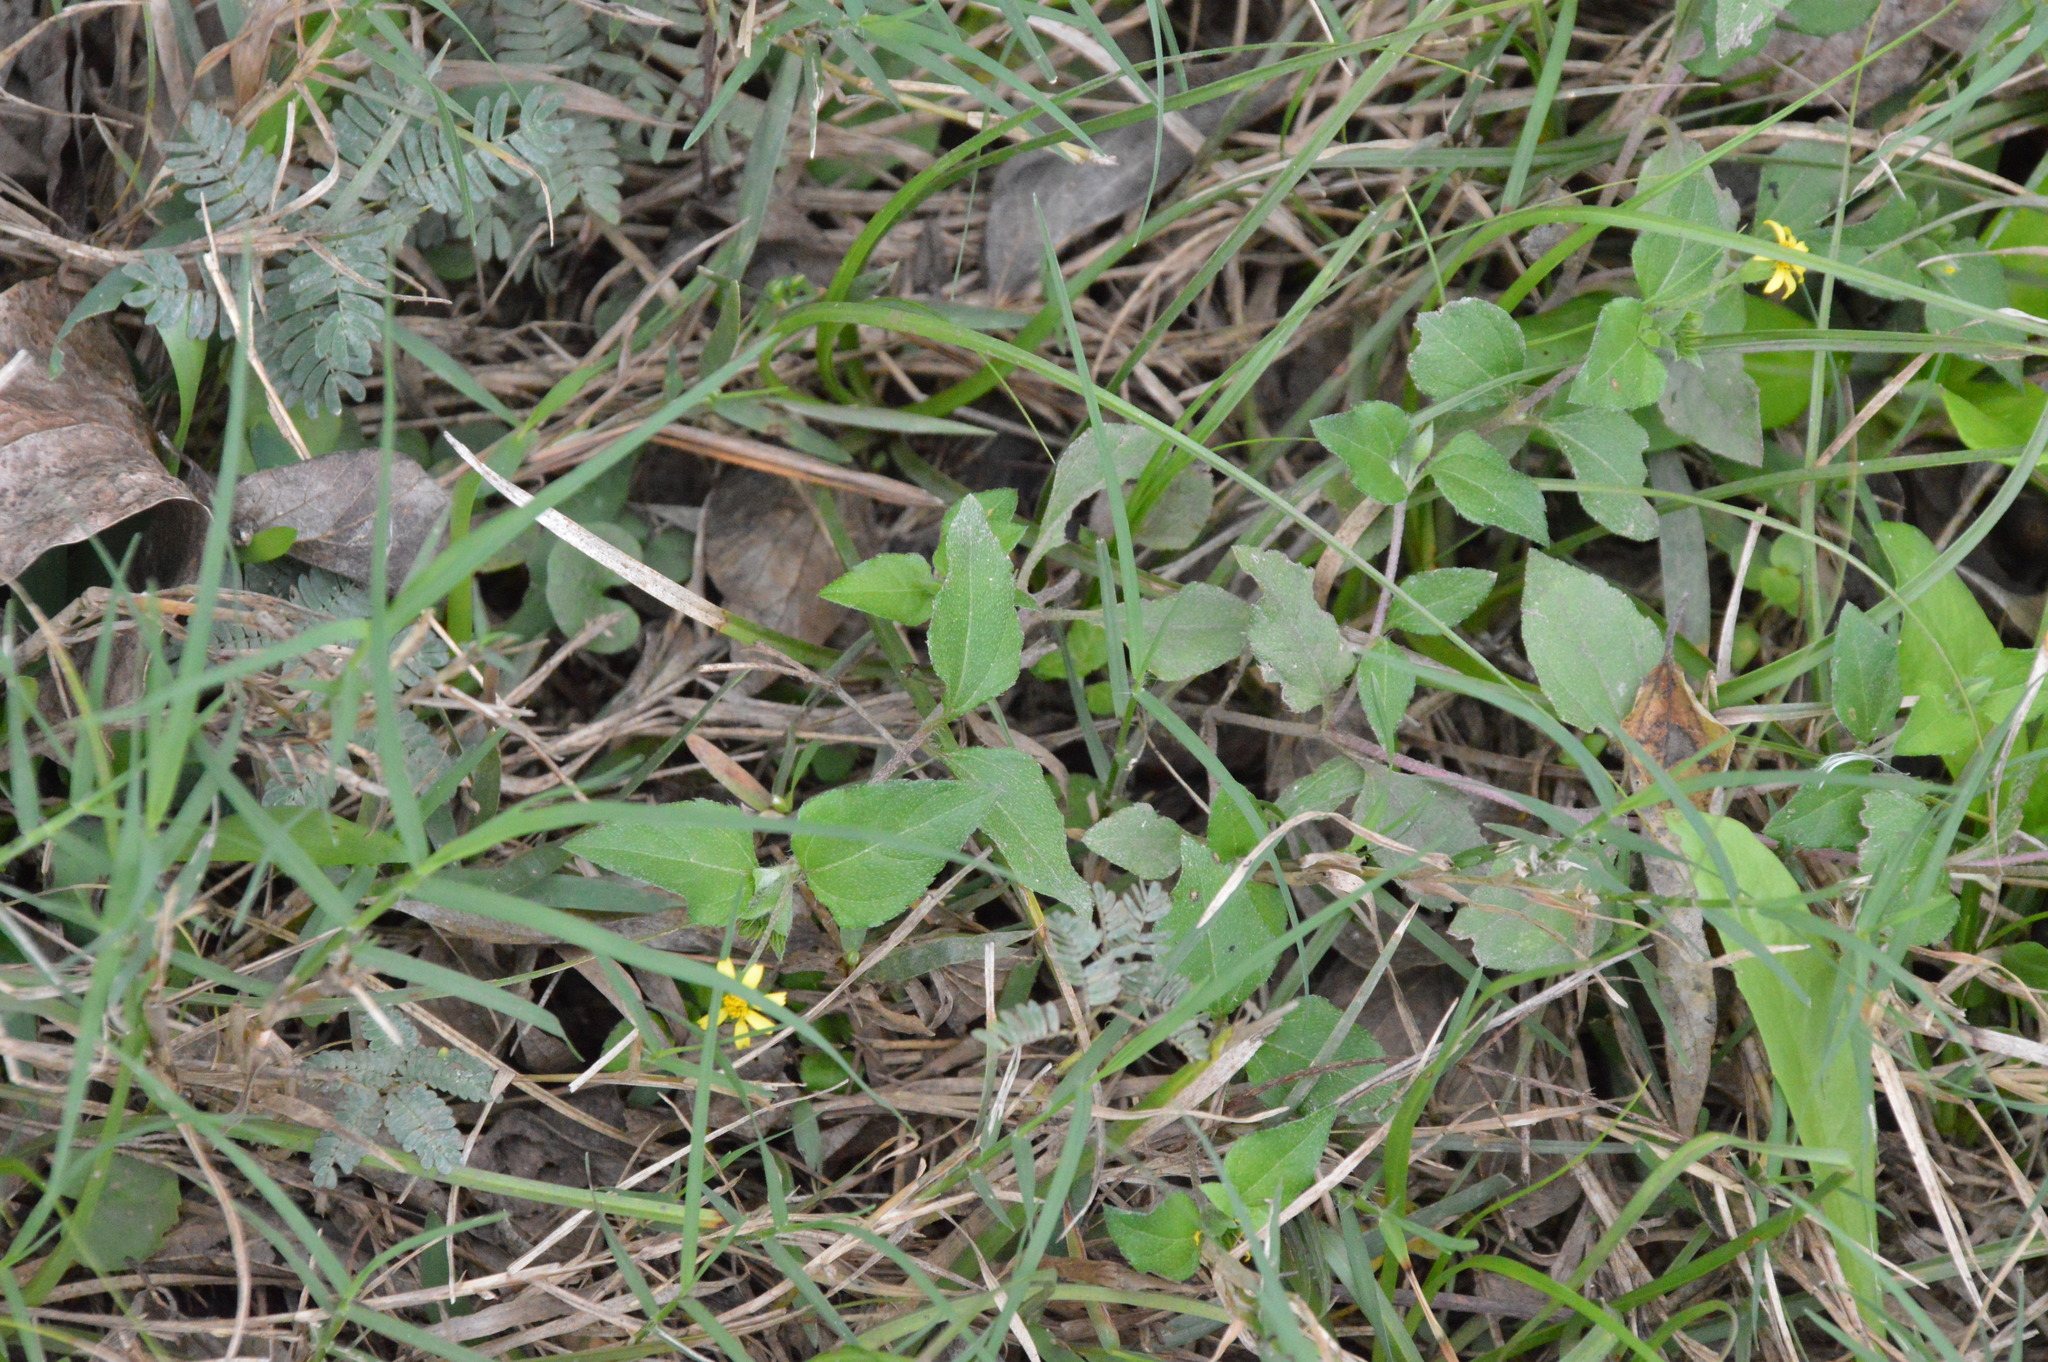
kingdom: Plantae
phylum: Tracheophyta
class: Magnoliopsida
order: Asterales
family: Asteraceae
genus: Calyptocarpus
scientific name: Calyptocarpus vialis
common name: Straggler daisy
